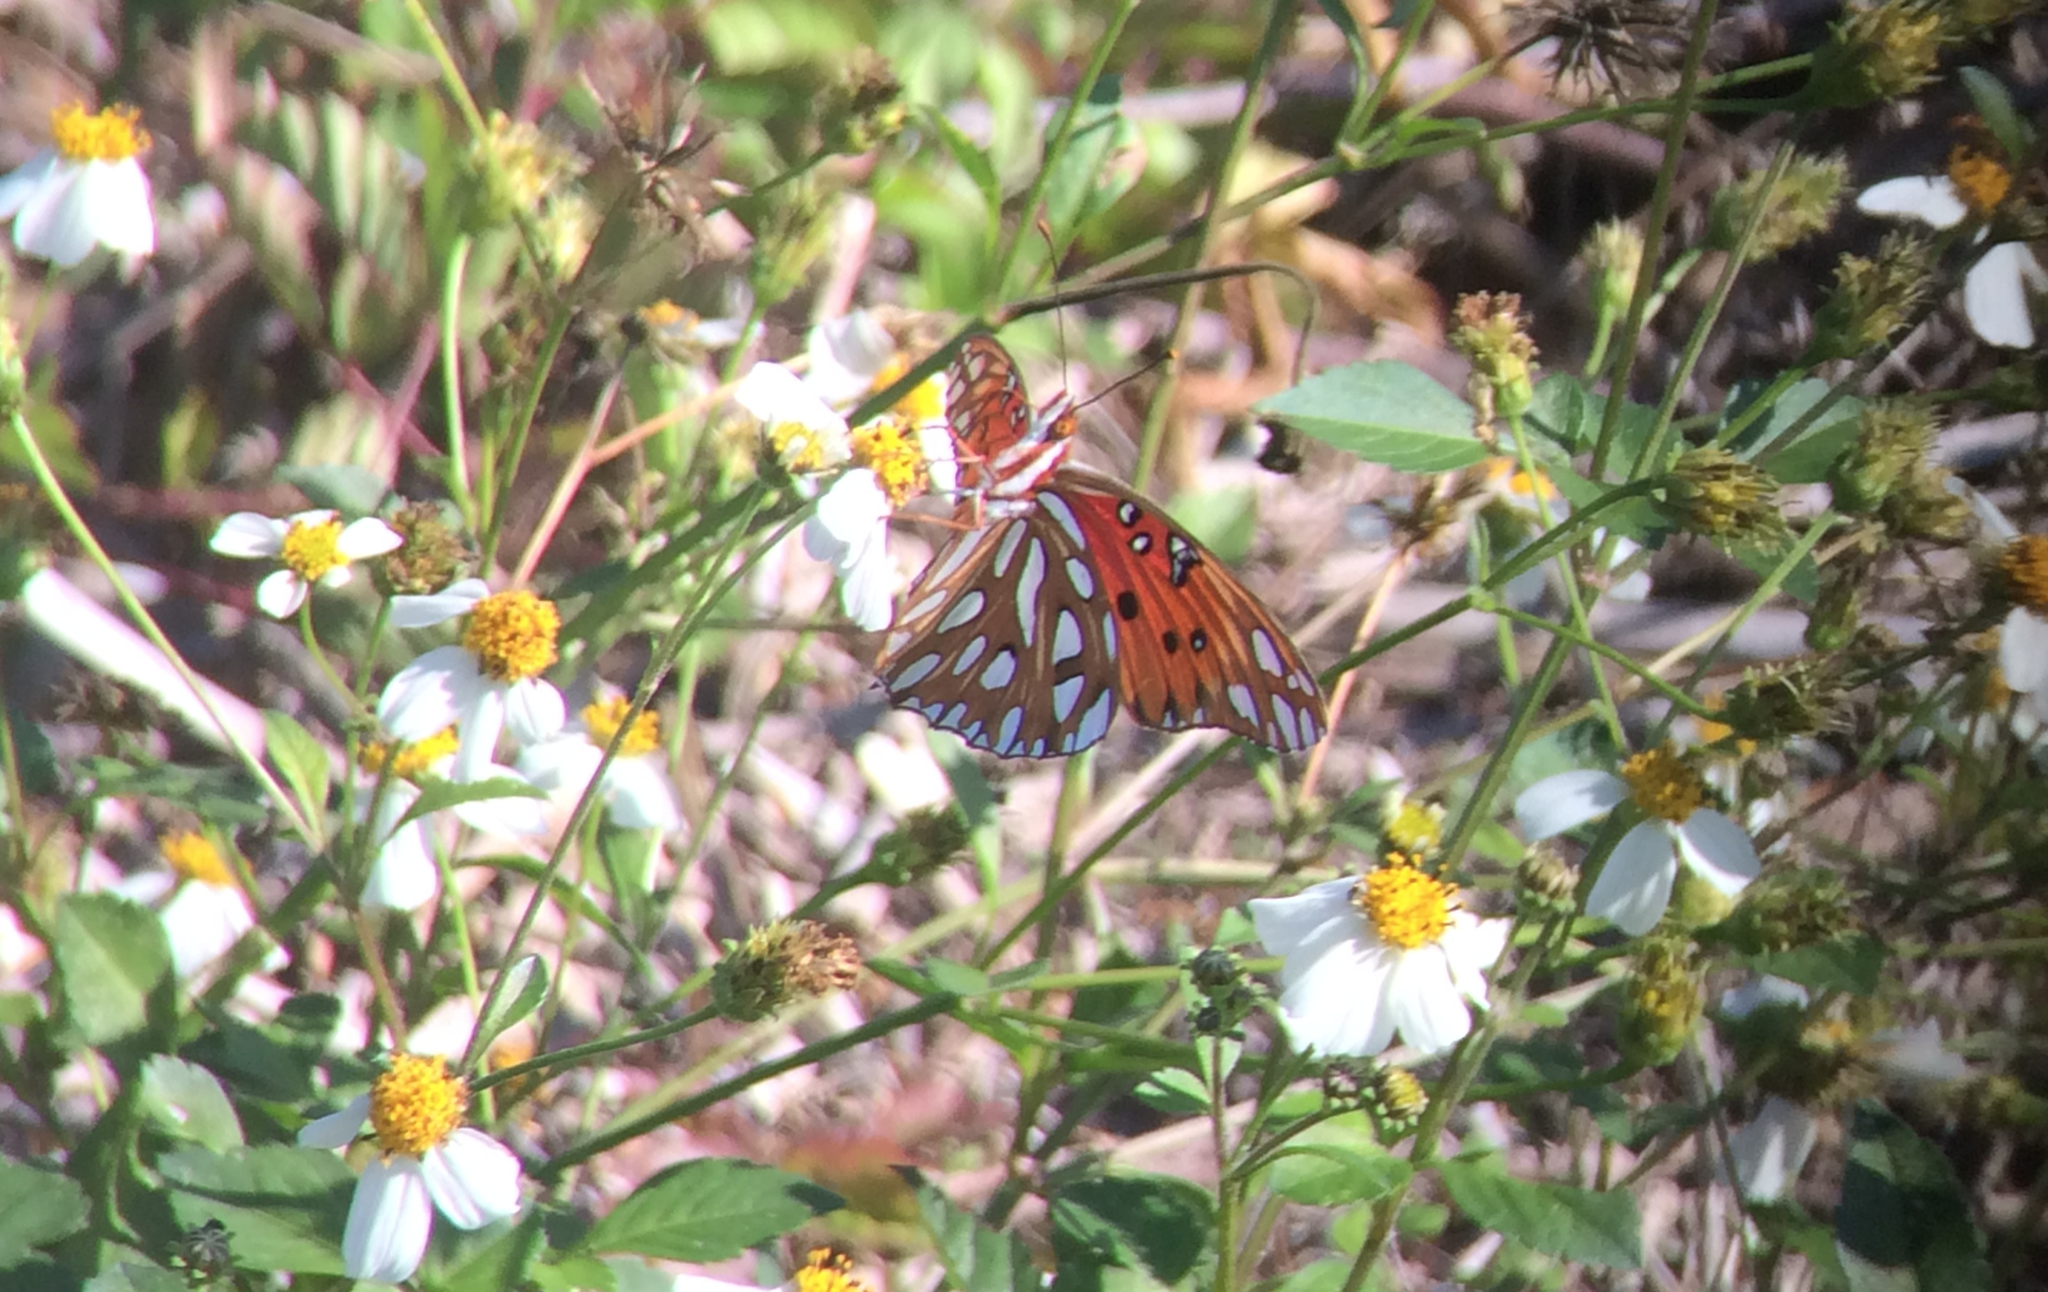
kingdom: Animalia
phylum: Arthropoda
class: Insecta
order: Lepidoptera
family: Nymphalidae
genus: Dione
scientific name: Dione vanillae
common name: Gulf fritillary
